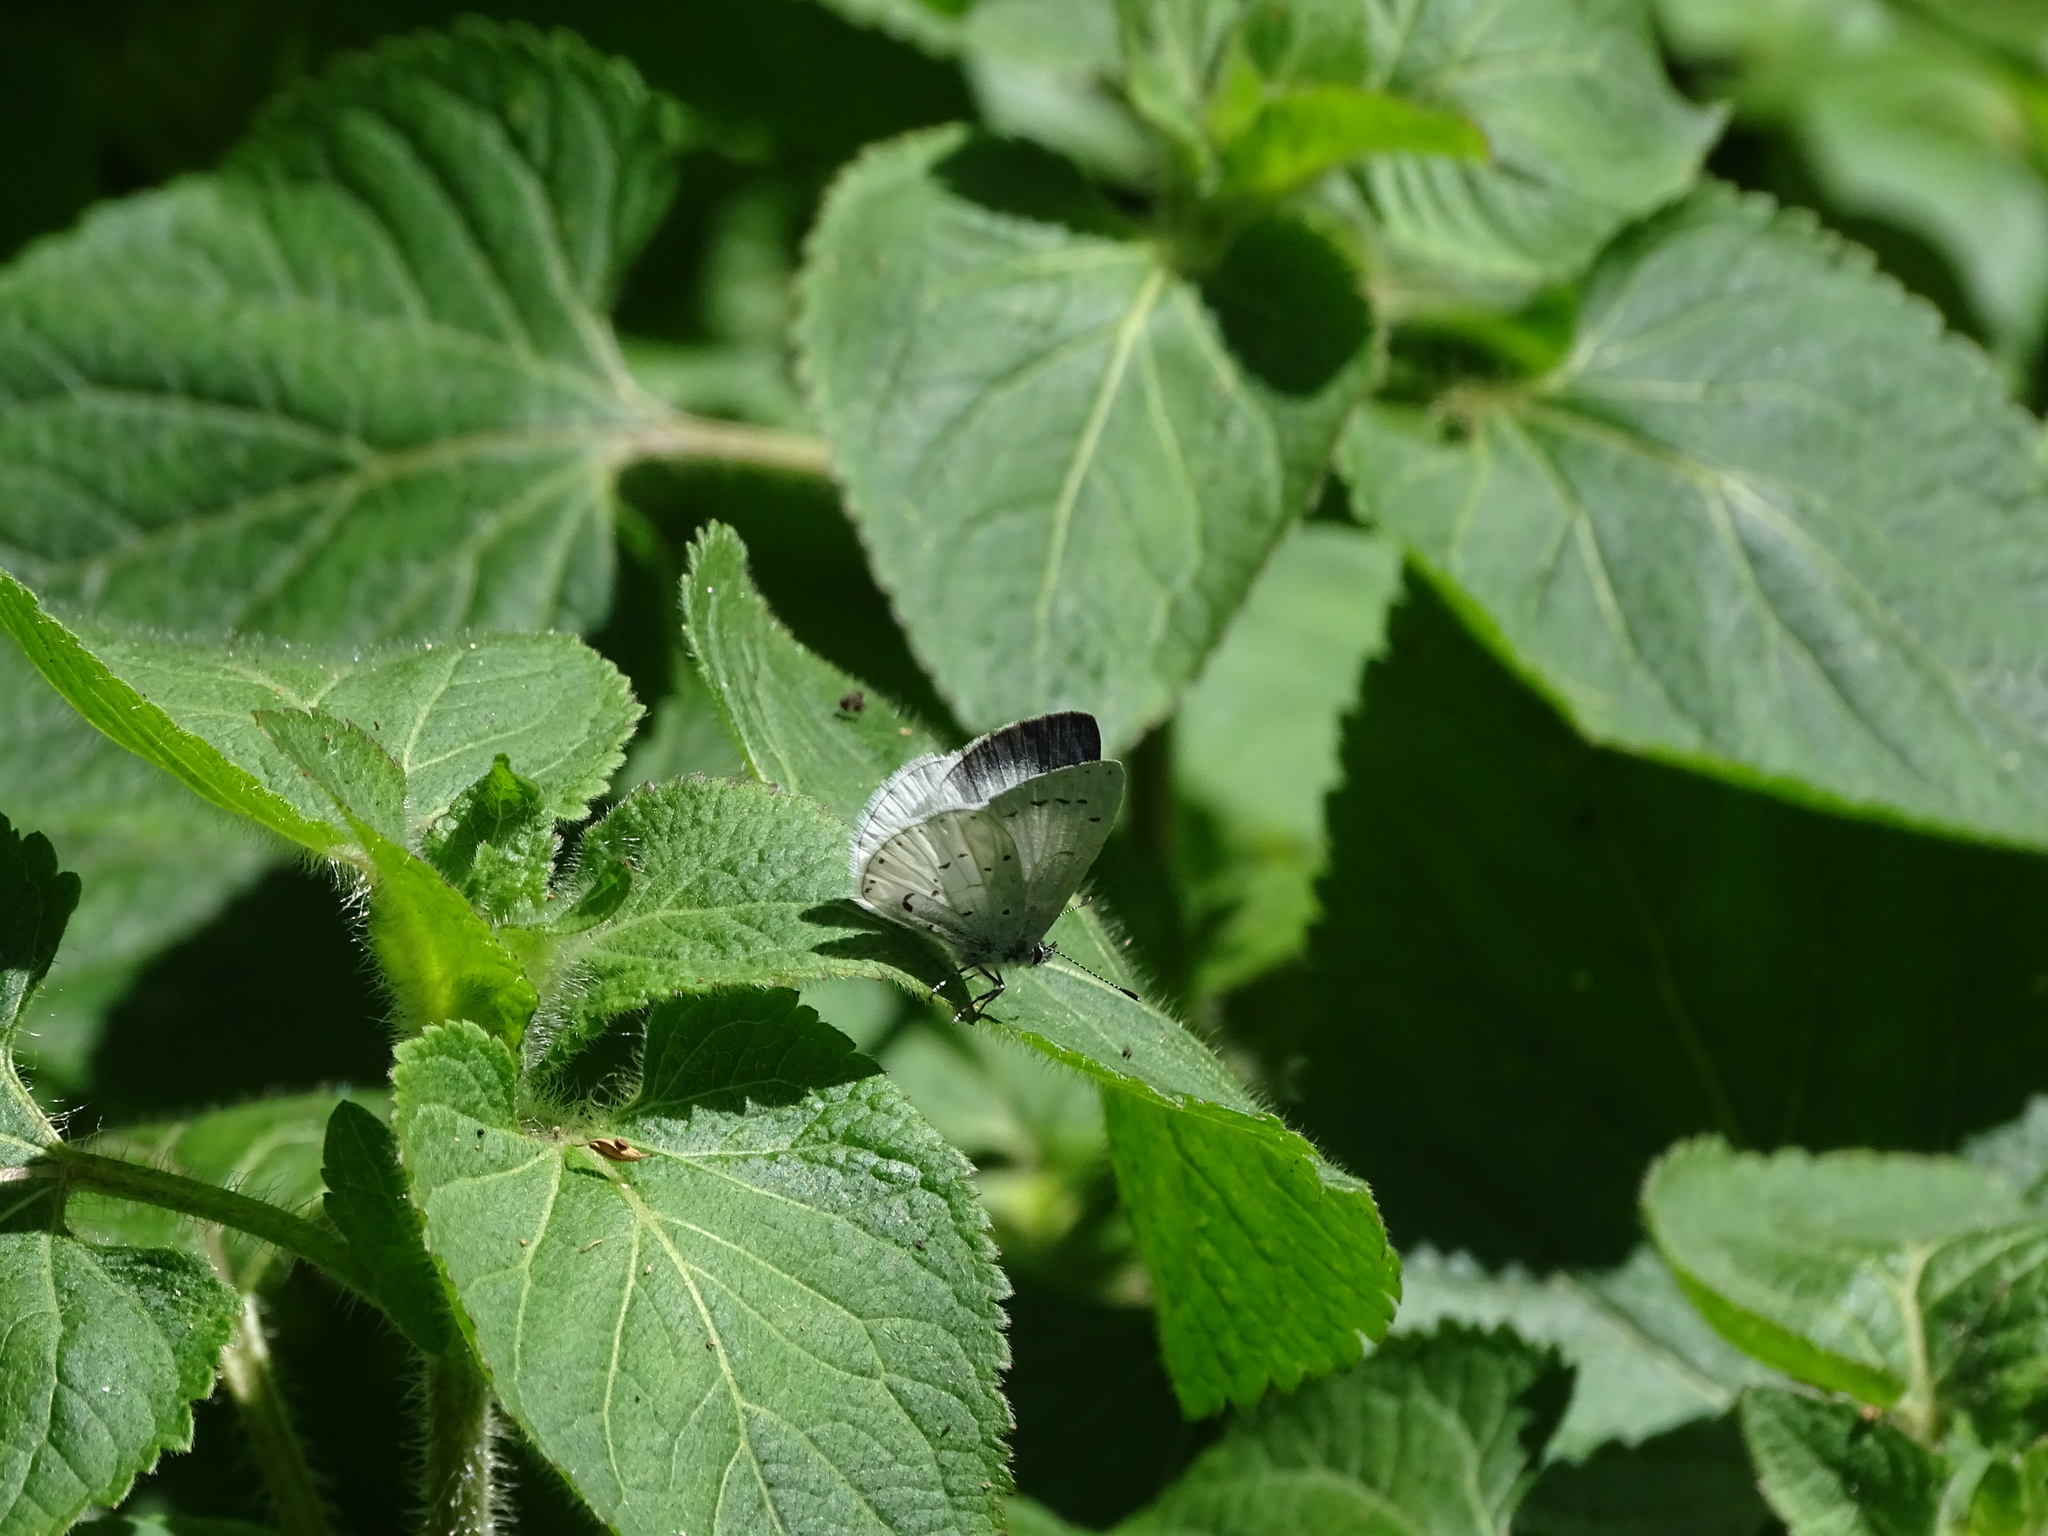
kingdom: Animalia
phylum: Arthropoda
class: Insecta
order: Lepidoptera
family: Lycaenidae
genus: Udara
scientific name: Udara akasa
